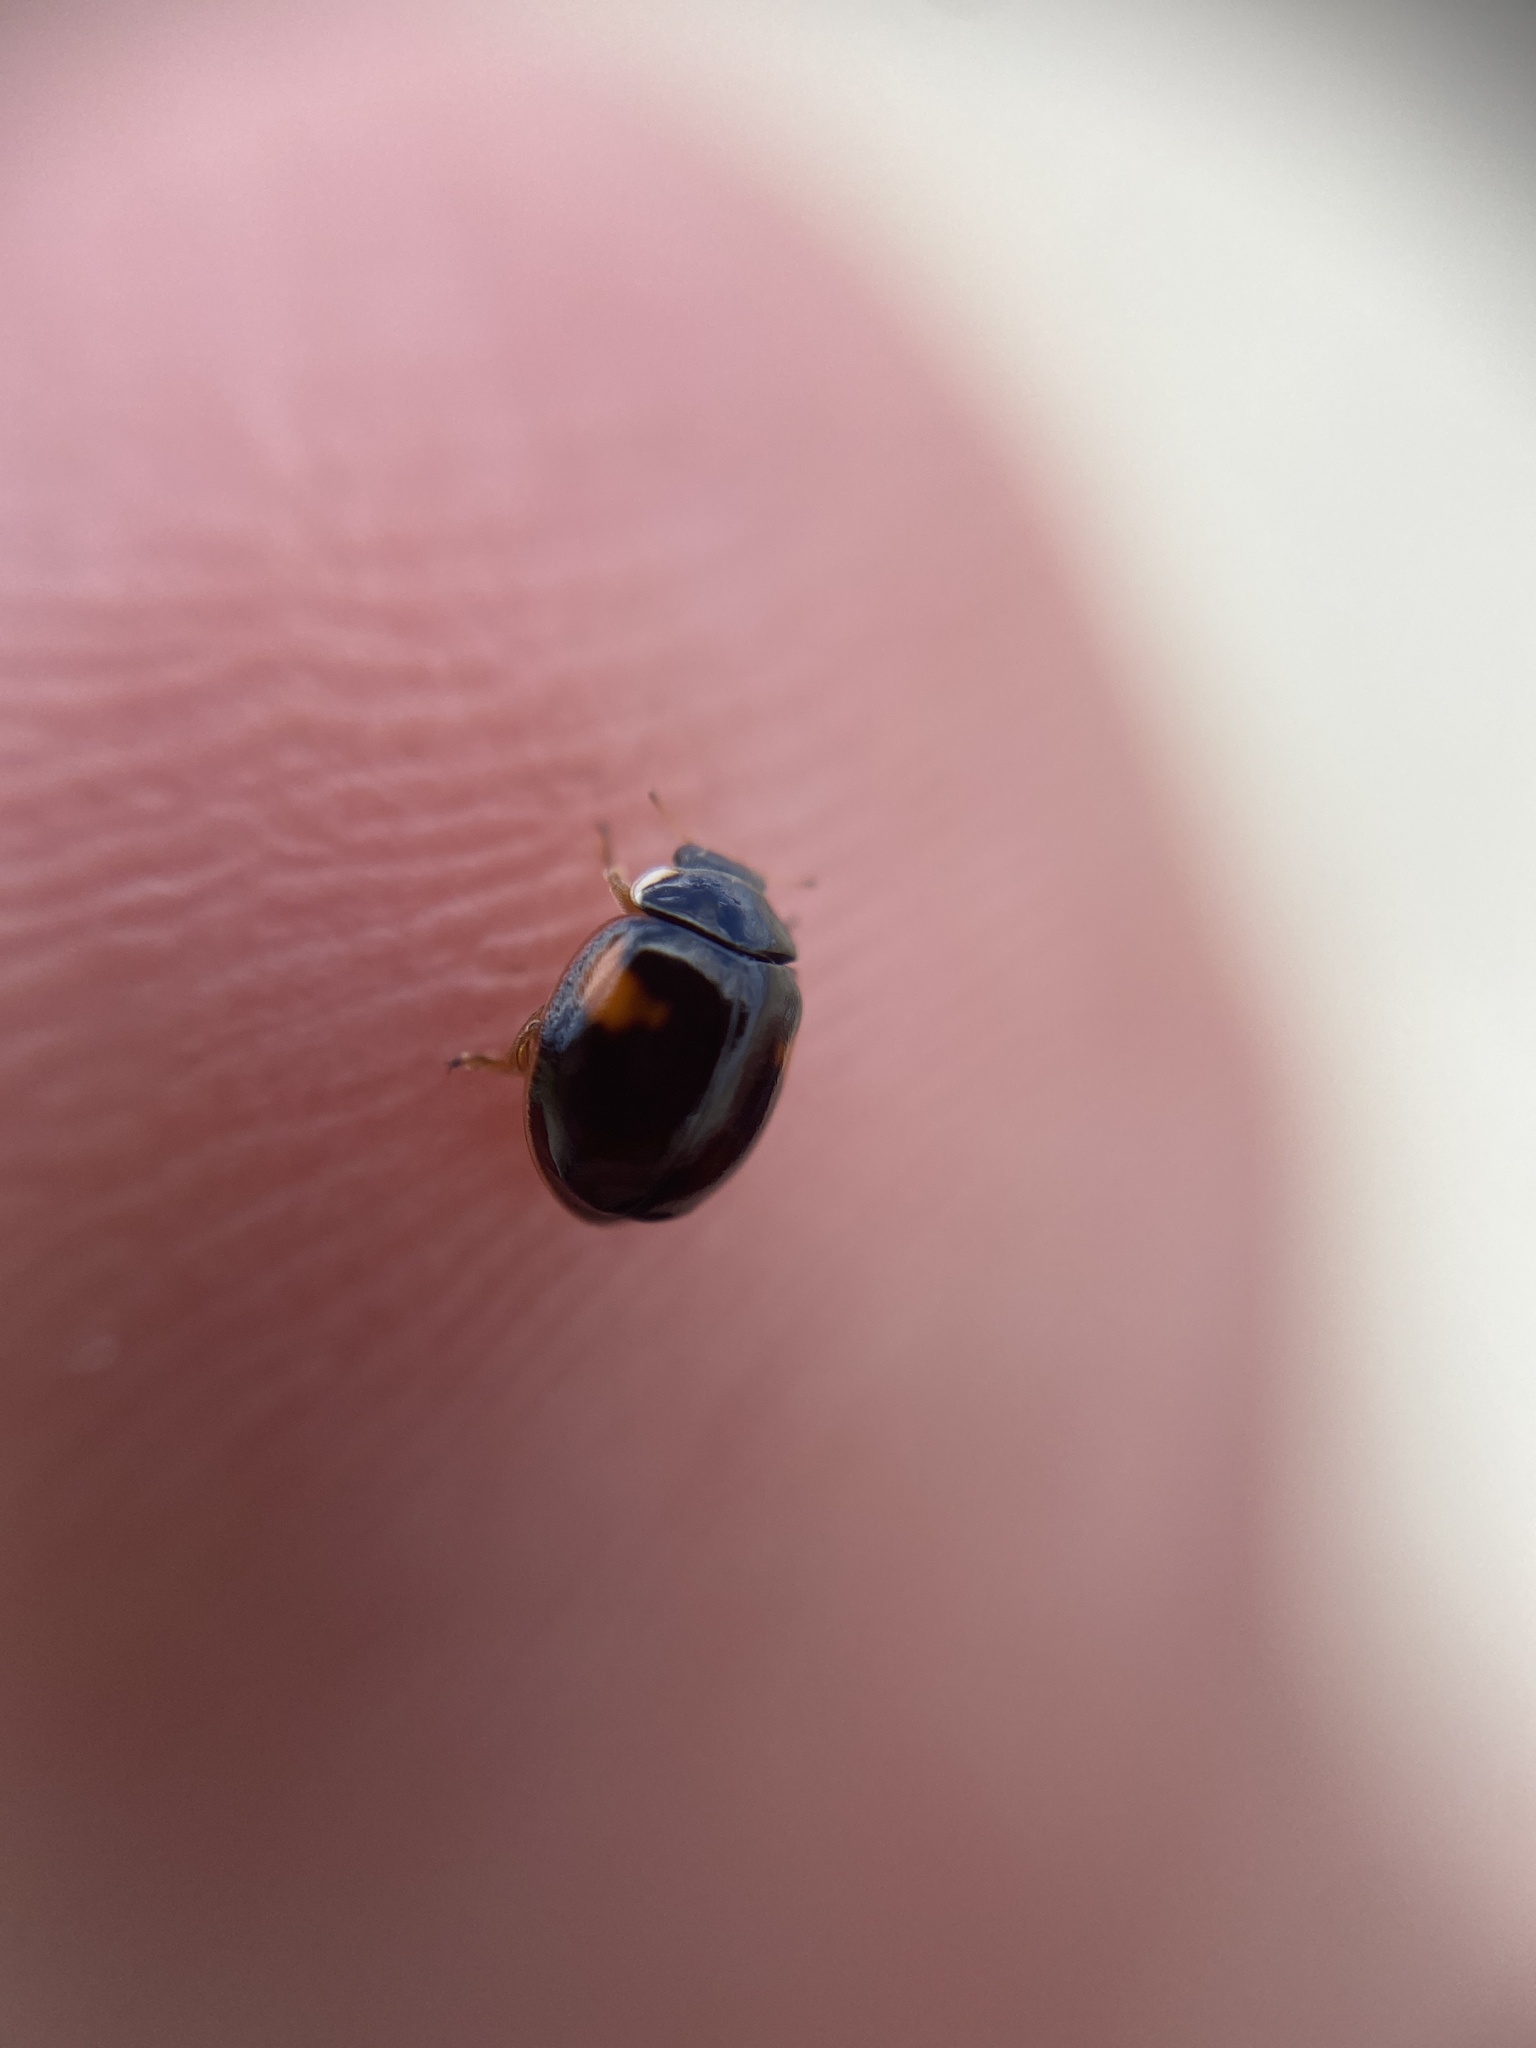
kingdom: Animalia
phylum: Arthropoda
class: Insecta
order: Coleoptera
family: Coccinellidae
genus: Adalia
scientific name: Adalia decempunctata
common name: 10-spot ladybird
